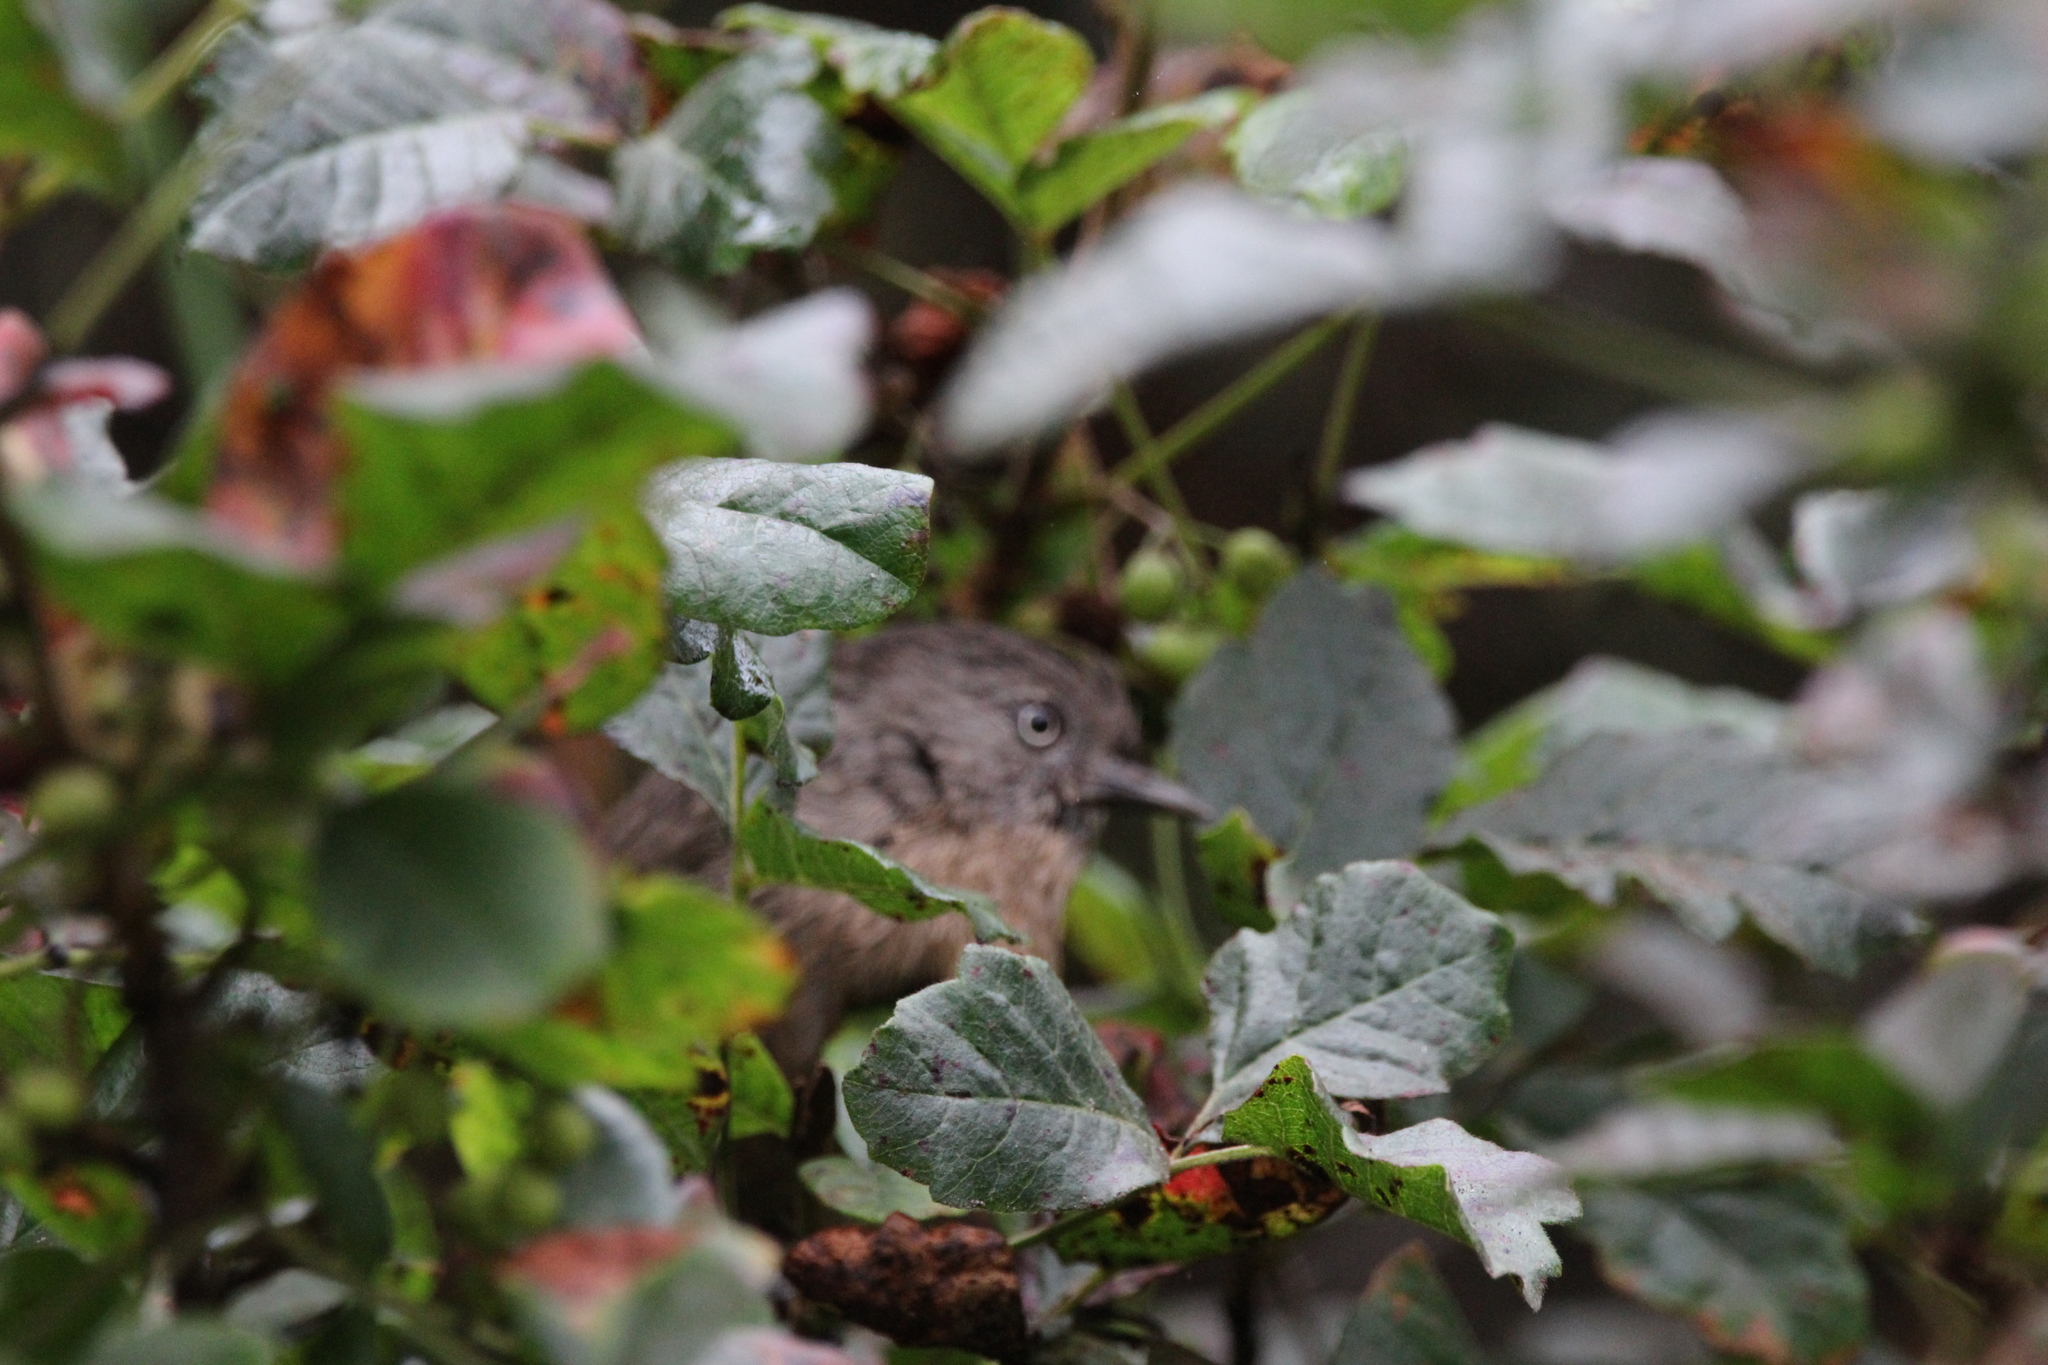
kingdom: Animalia
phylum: Chordata
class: Aves
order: Passeriformes
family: Sylviidae
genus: Chamaea
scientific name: Chamaea fasciata
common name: Wrentit
